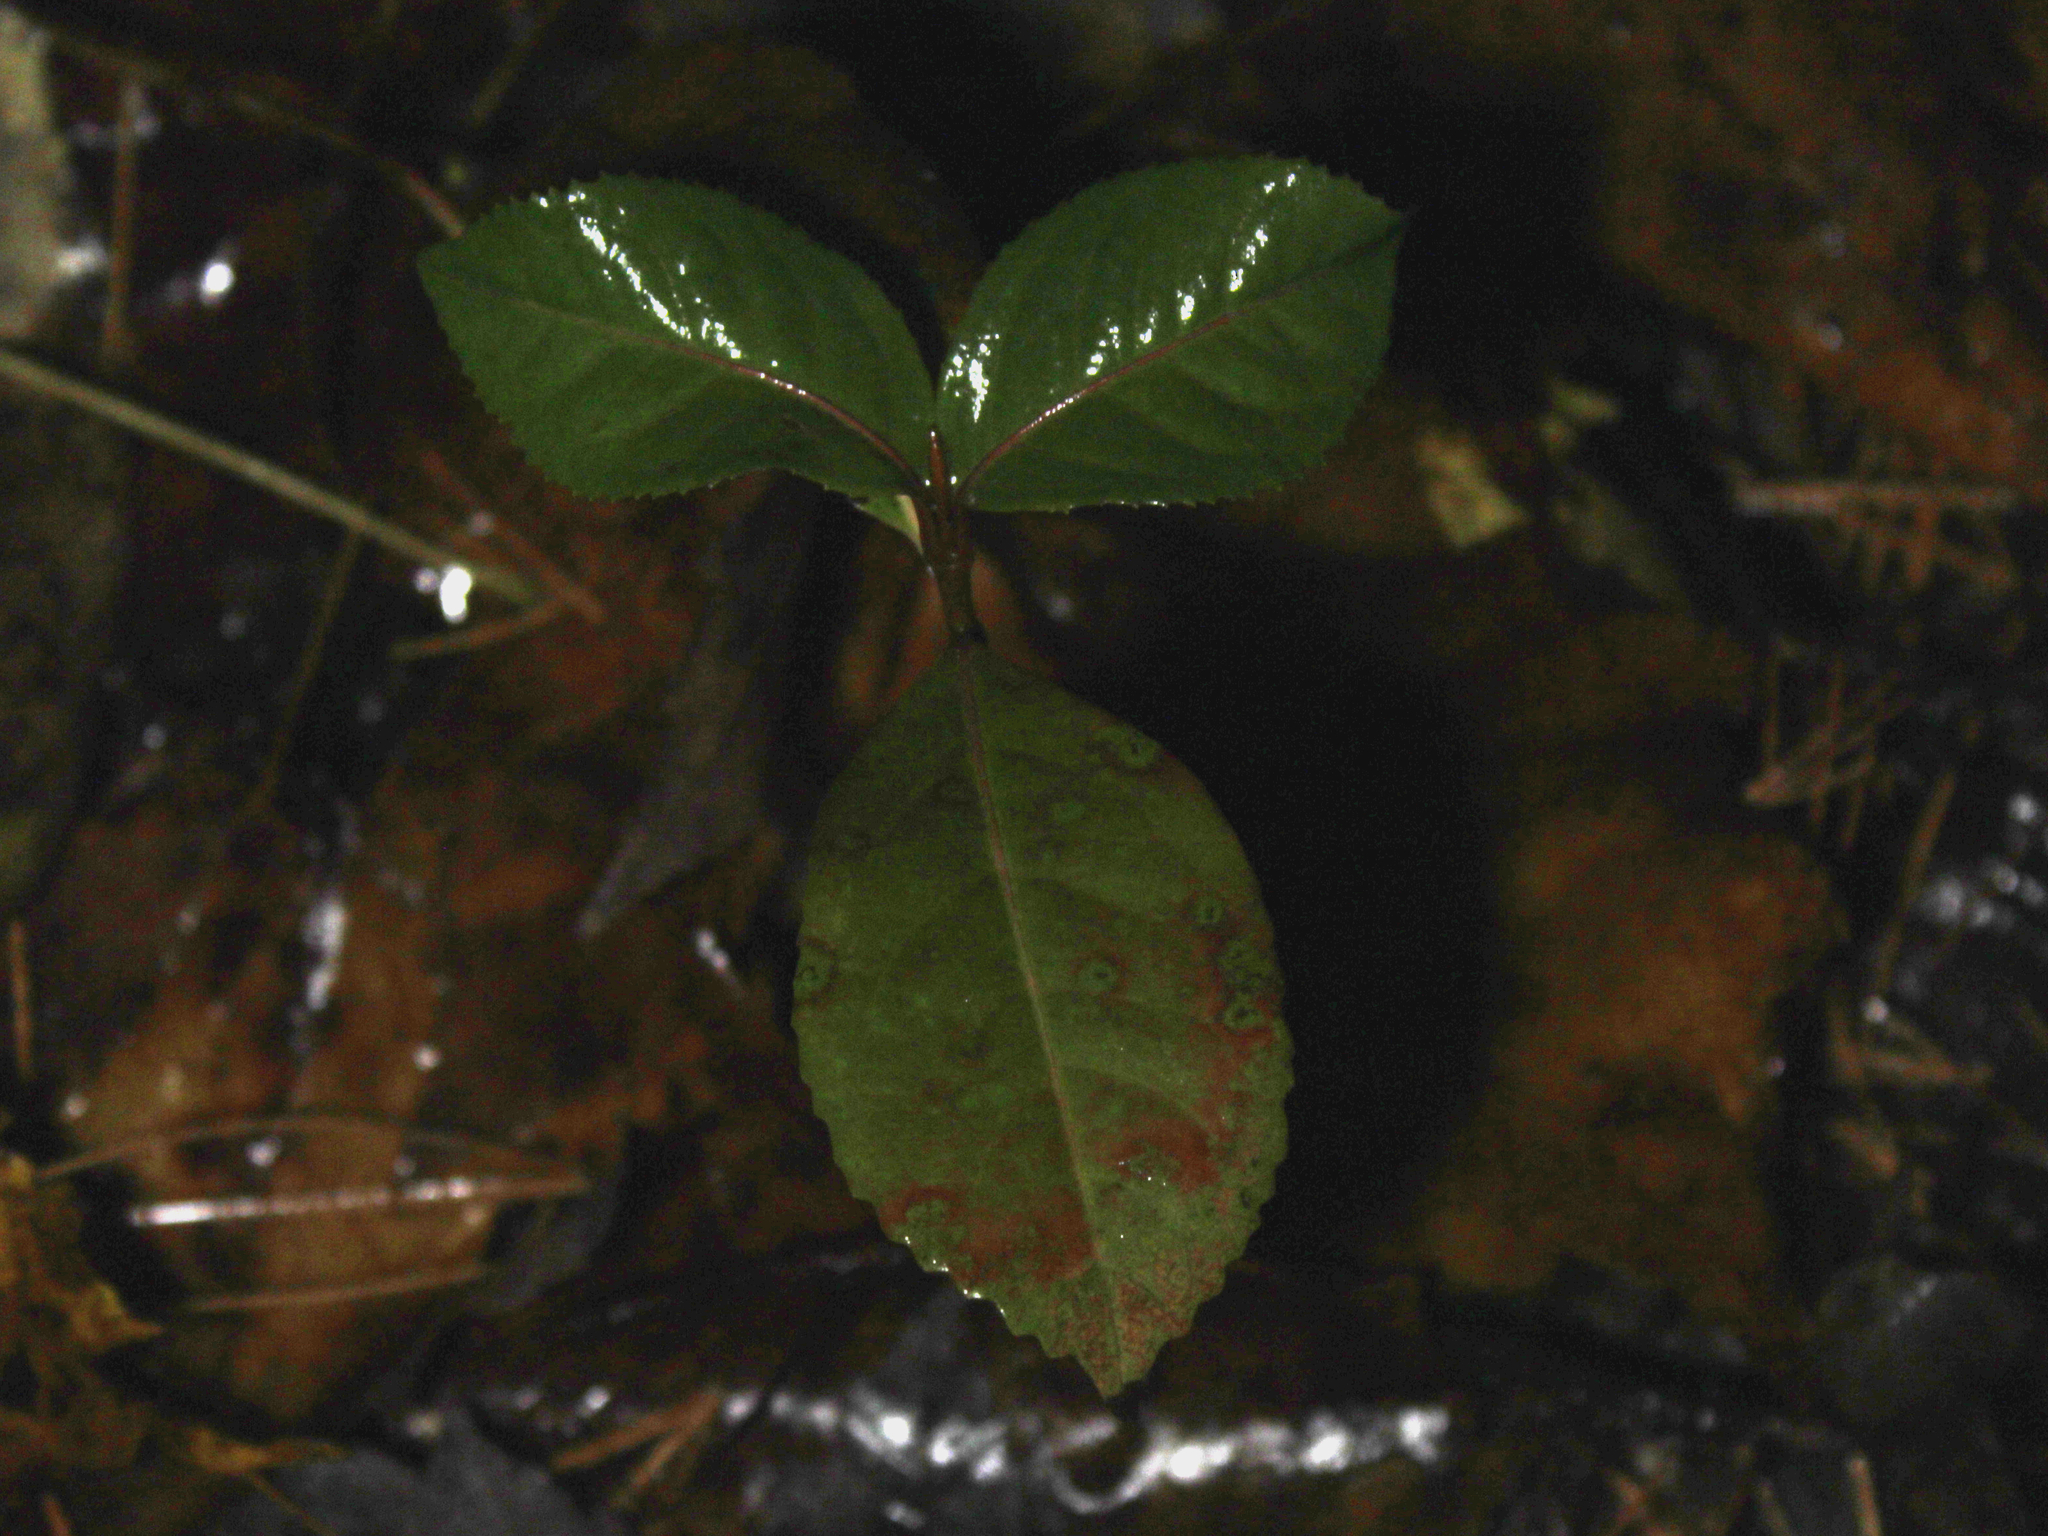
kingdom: Plantae
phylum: Tracheophyta
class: Magnoliopsida
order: Dipsacales
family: Viburnaceae
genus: Viburnum
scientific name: Viburnum cassinoides
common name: Swamp haw
